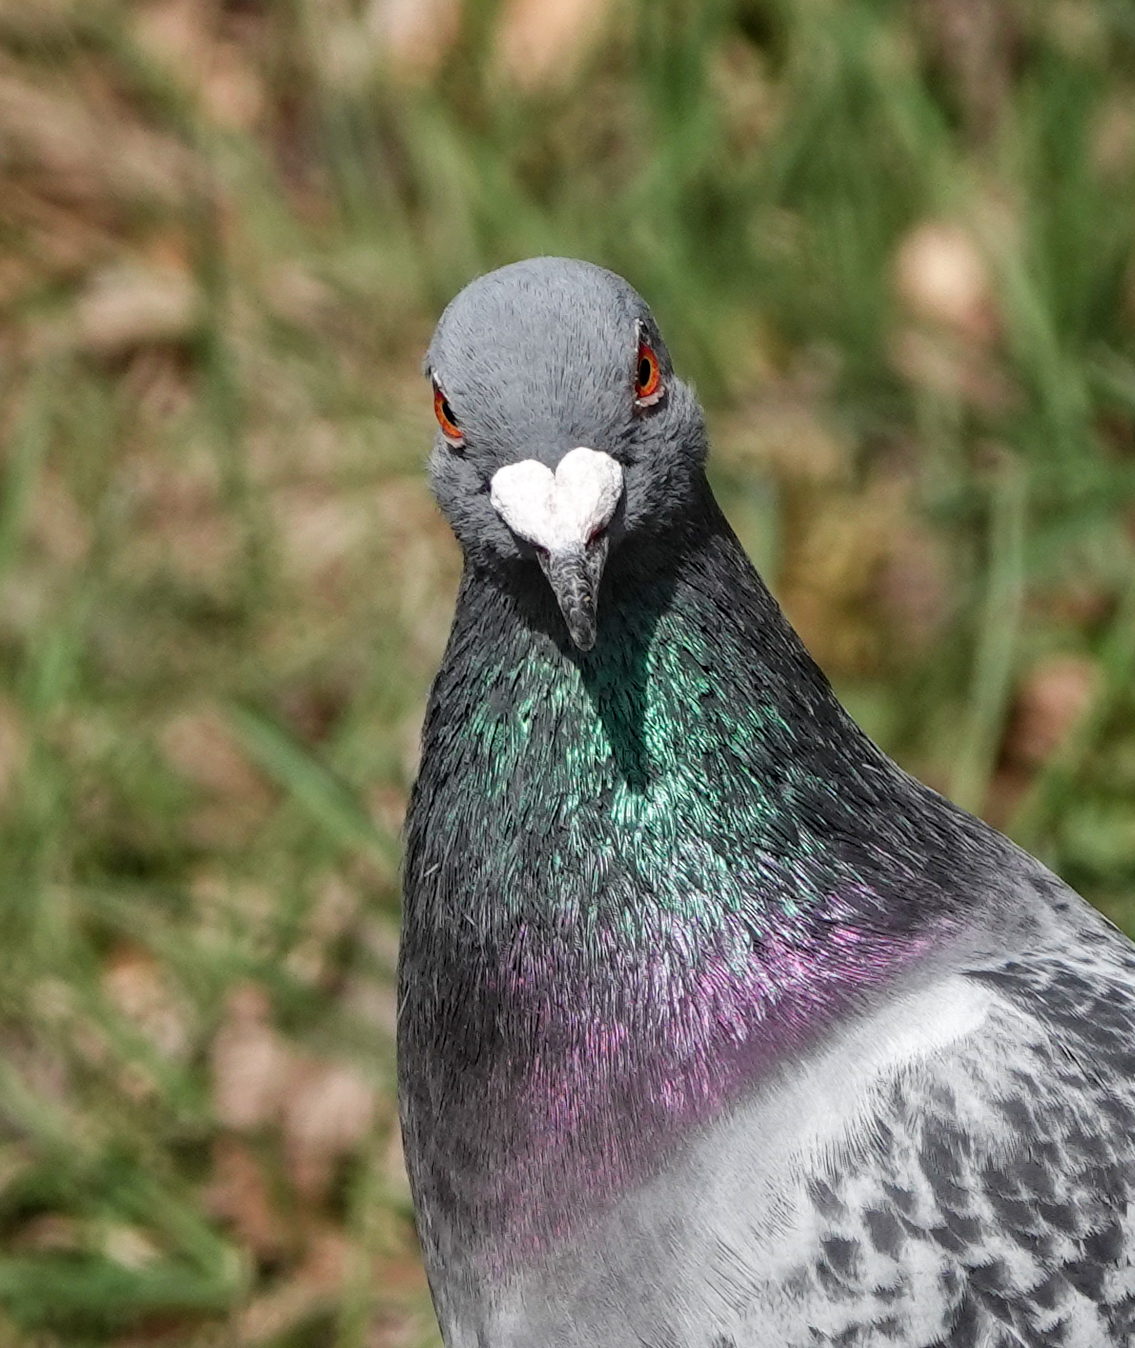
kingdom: Animalia
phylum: Chordata
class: Aves
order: Columbiformes
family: Columbidae
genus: Columba
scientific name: Columba livia
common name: Rock pigeon
